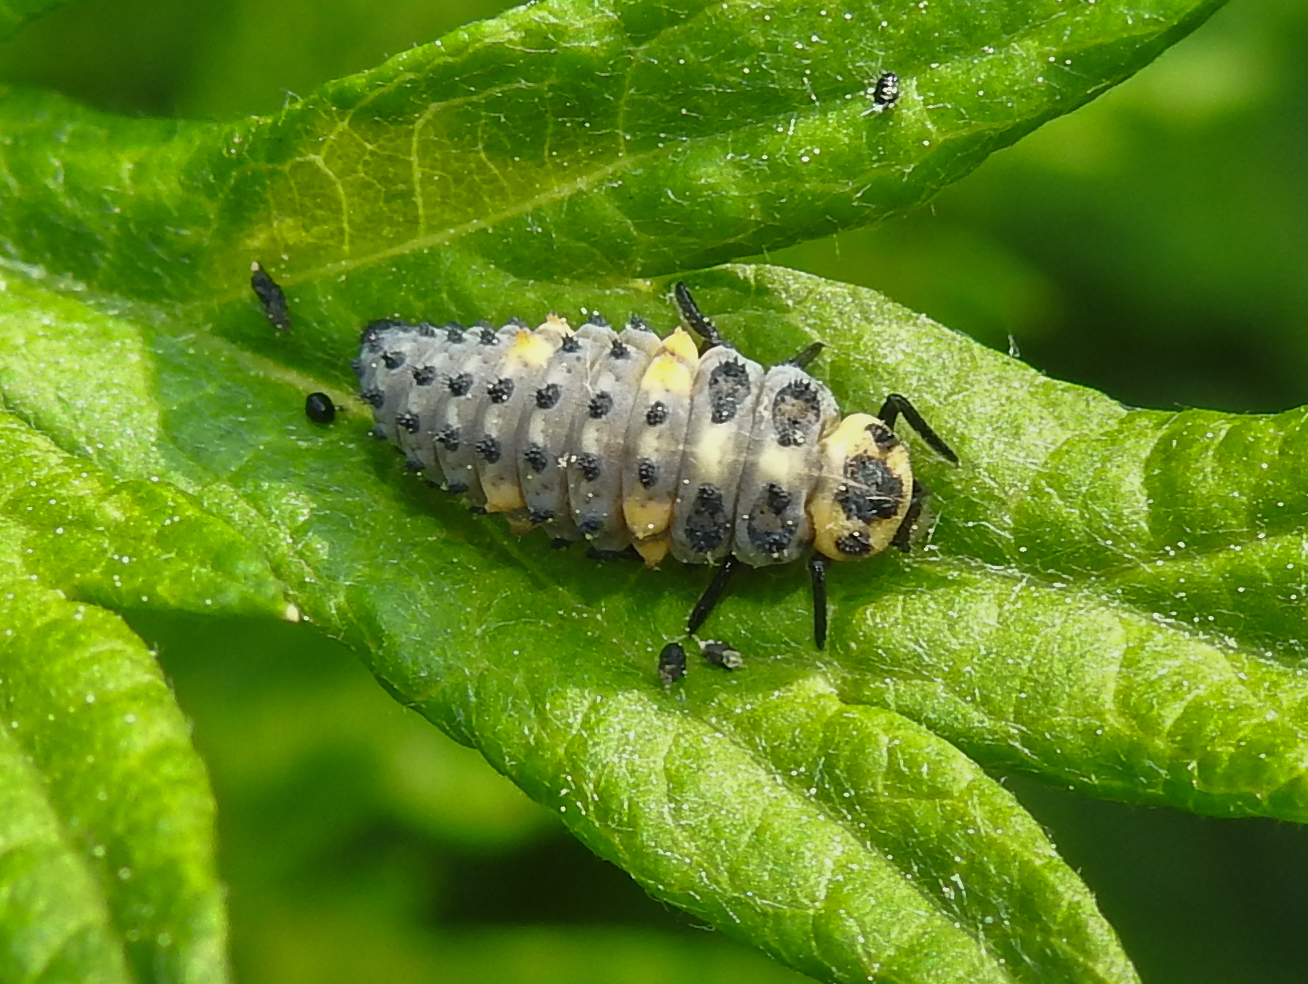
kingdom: Animalia
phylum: Arthropoda
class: Insecta
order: Coleoptera
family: Coccinellidae
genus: Coccinella
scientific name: Coccinella septempunctata
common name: Sevenspotted lady beetle
